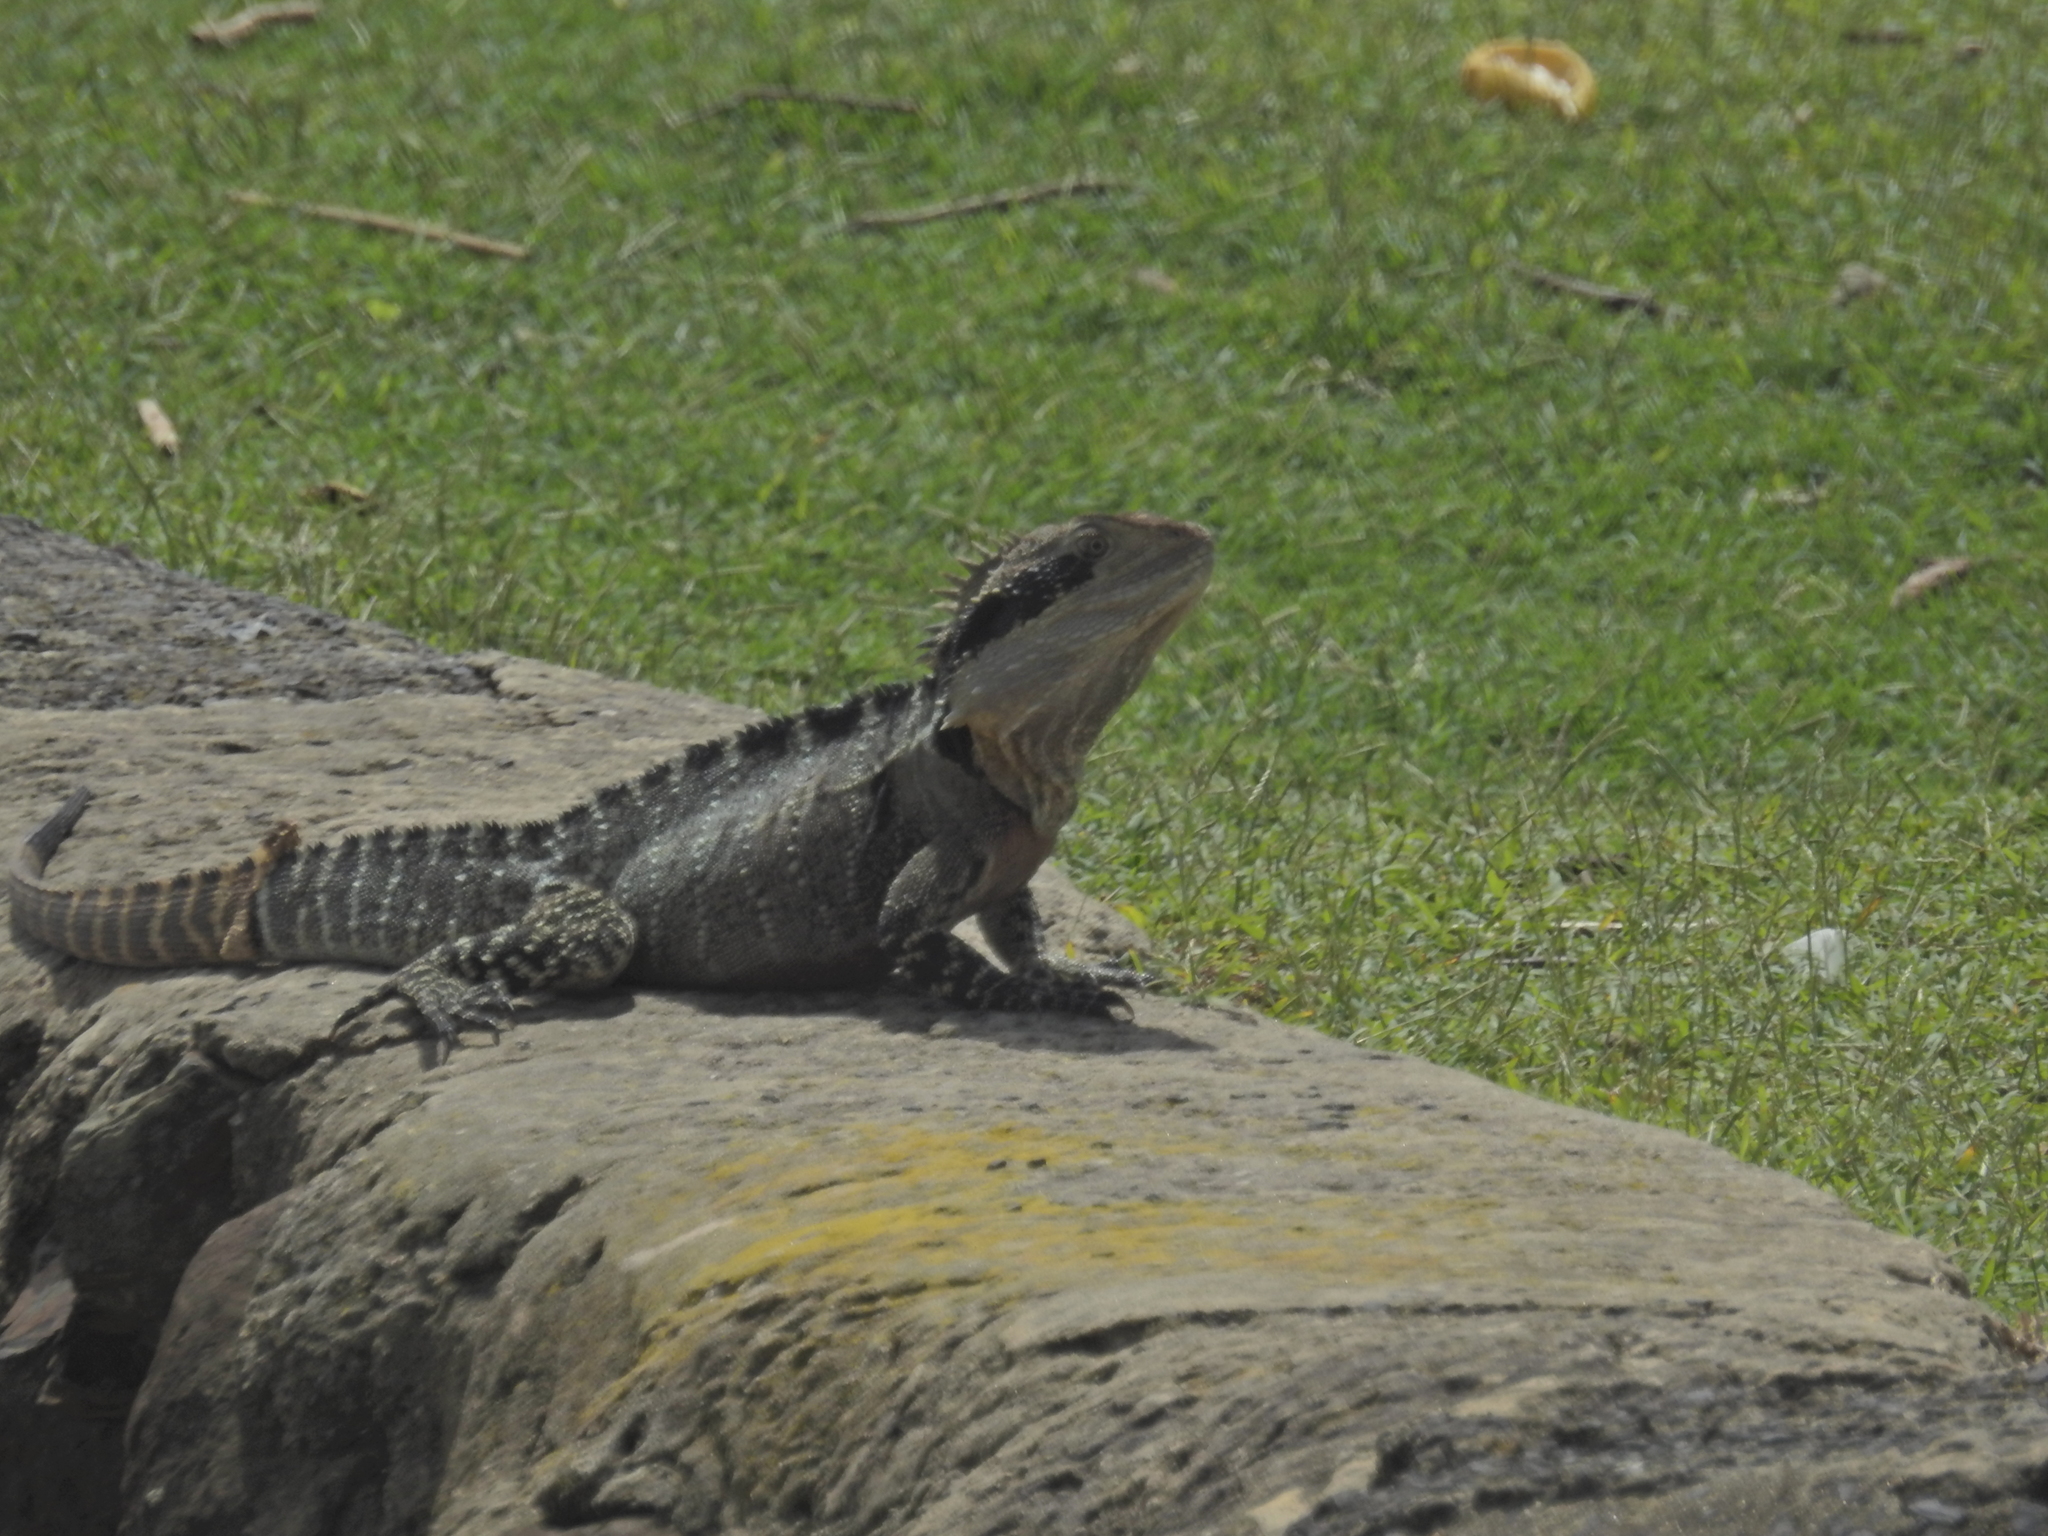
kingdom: Animalia
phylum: Chordata
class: Squamata
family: Agamidae
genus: Intellagama
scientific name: Intellagama lesueurii
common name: Eastern water dragon
